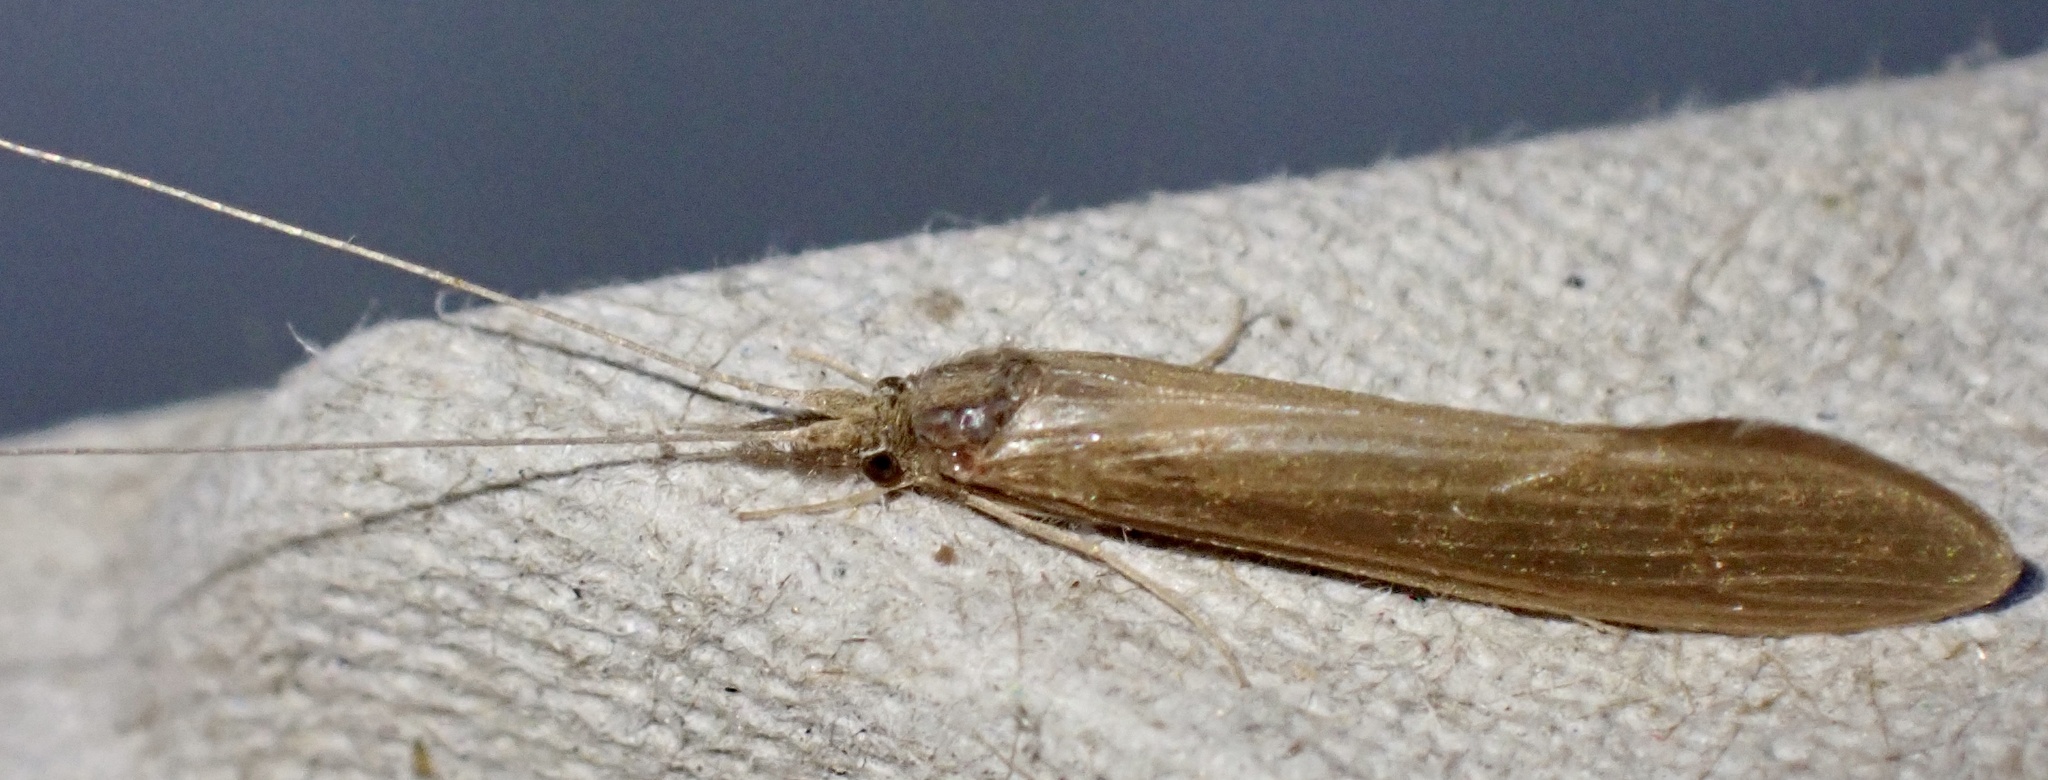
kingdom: Animalia
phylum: Arthropoda
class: Insecta
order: Trichoptera
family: Leptoceridae
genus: Oecetis
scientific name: Oecetis ochracea
